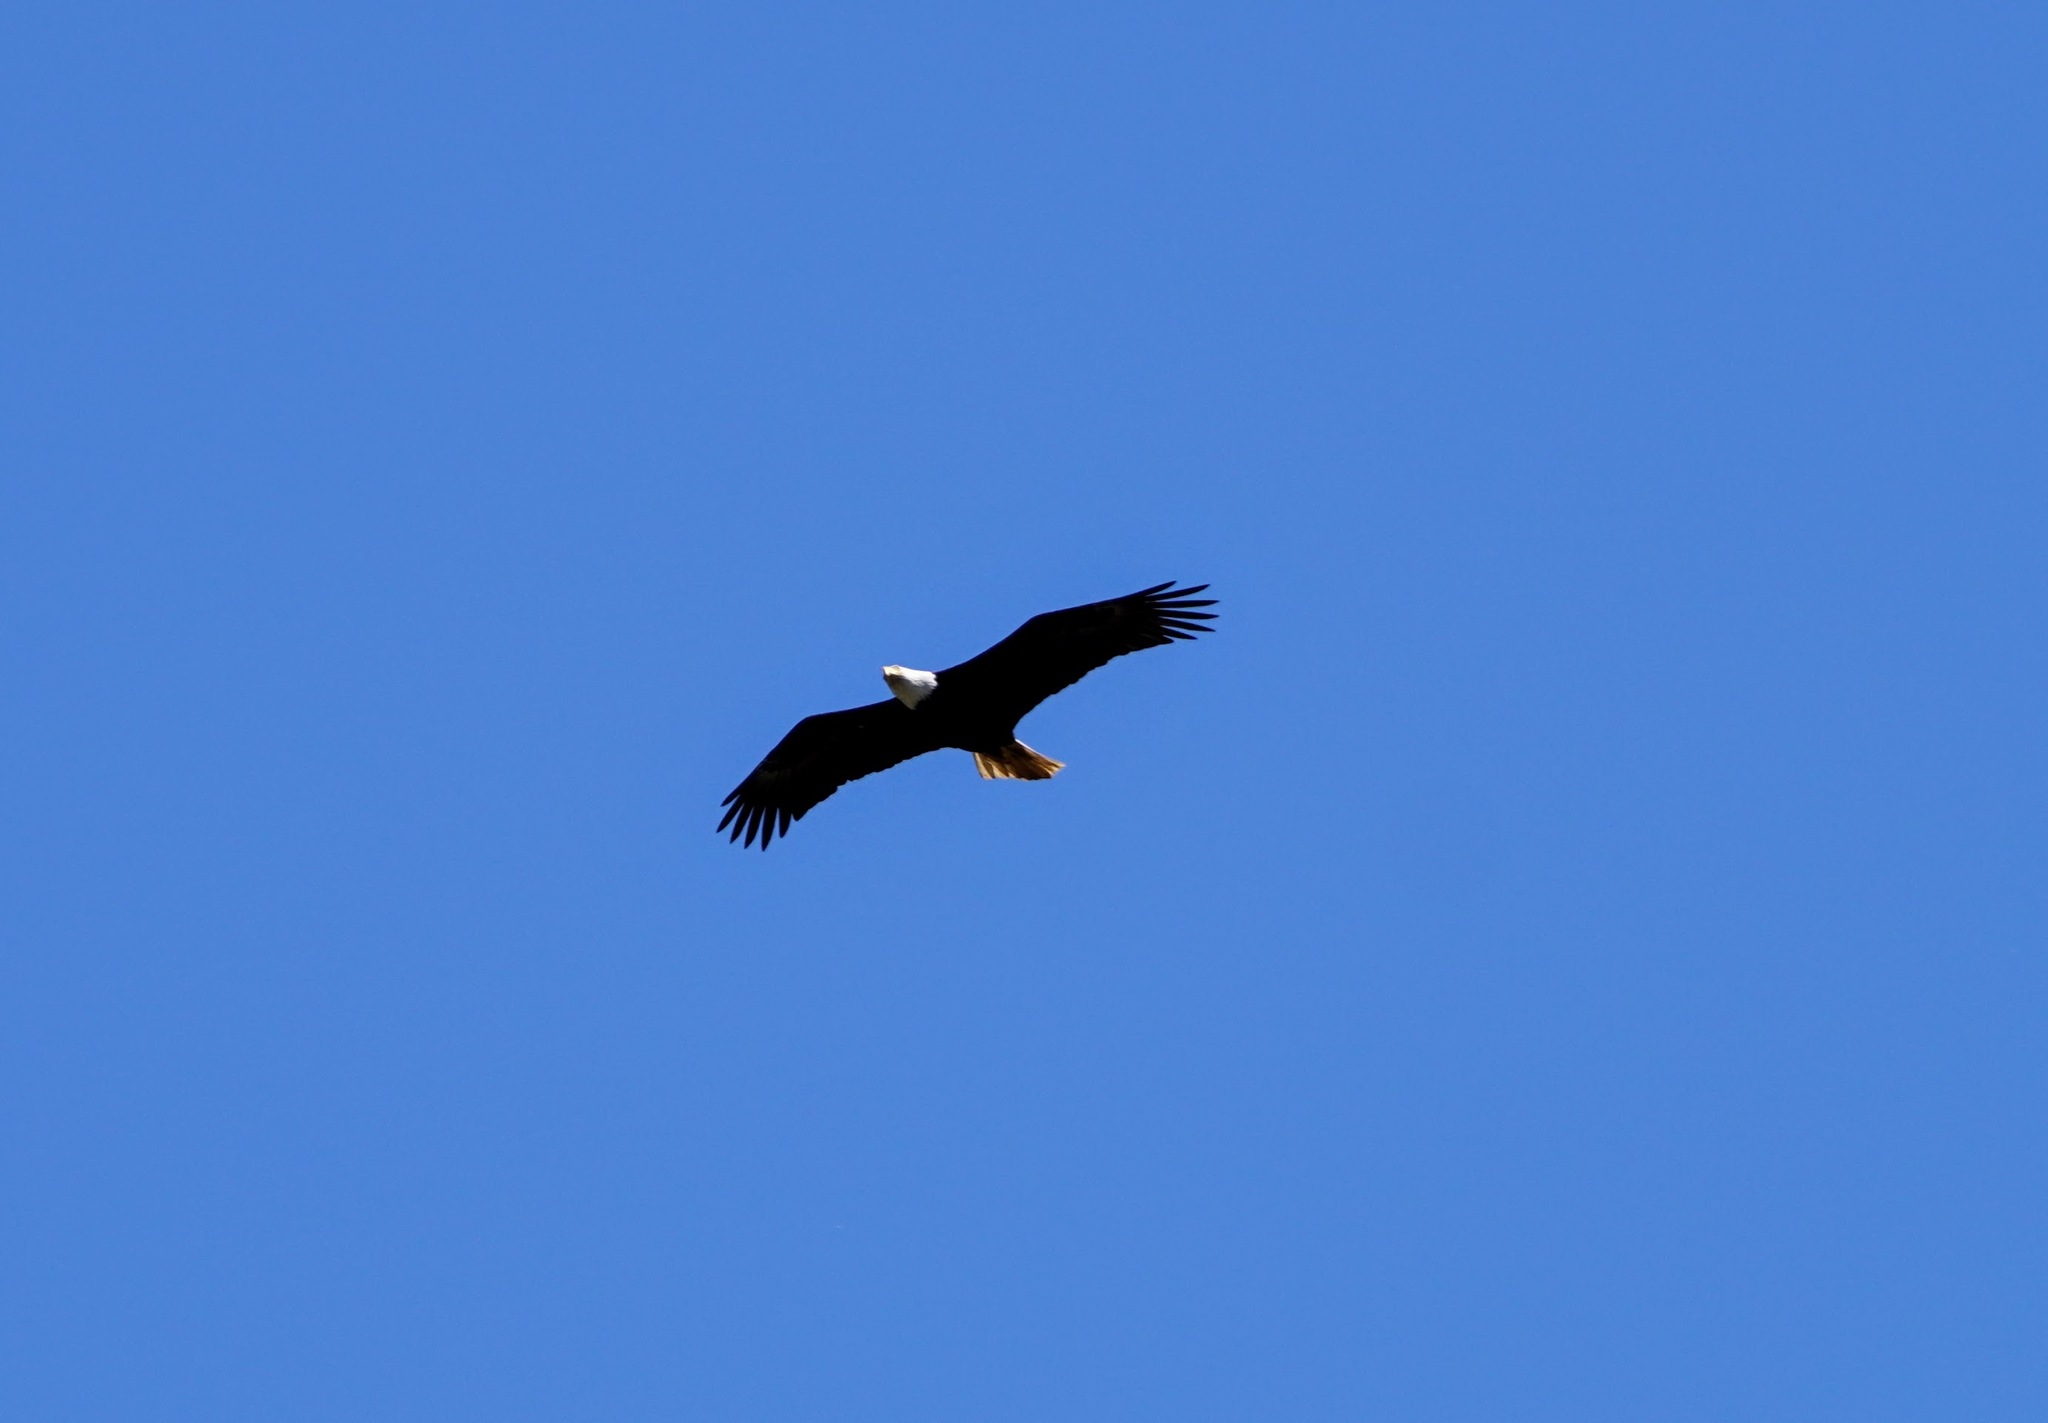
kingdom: Animalia
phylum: Chordata
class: Aves
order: Accipitriformes
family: Accipitridae
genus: Haliaeetus
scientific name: Haliaeetus leucocephalus
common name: Bald eagle
